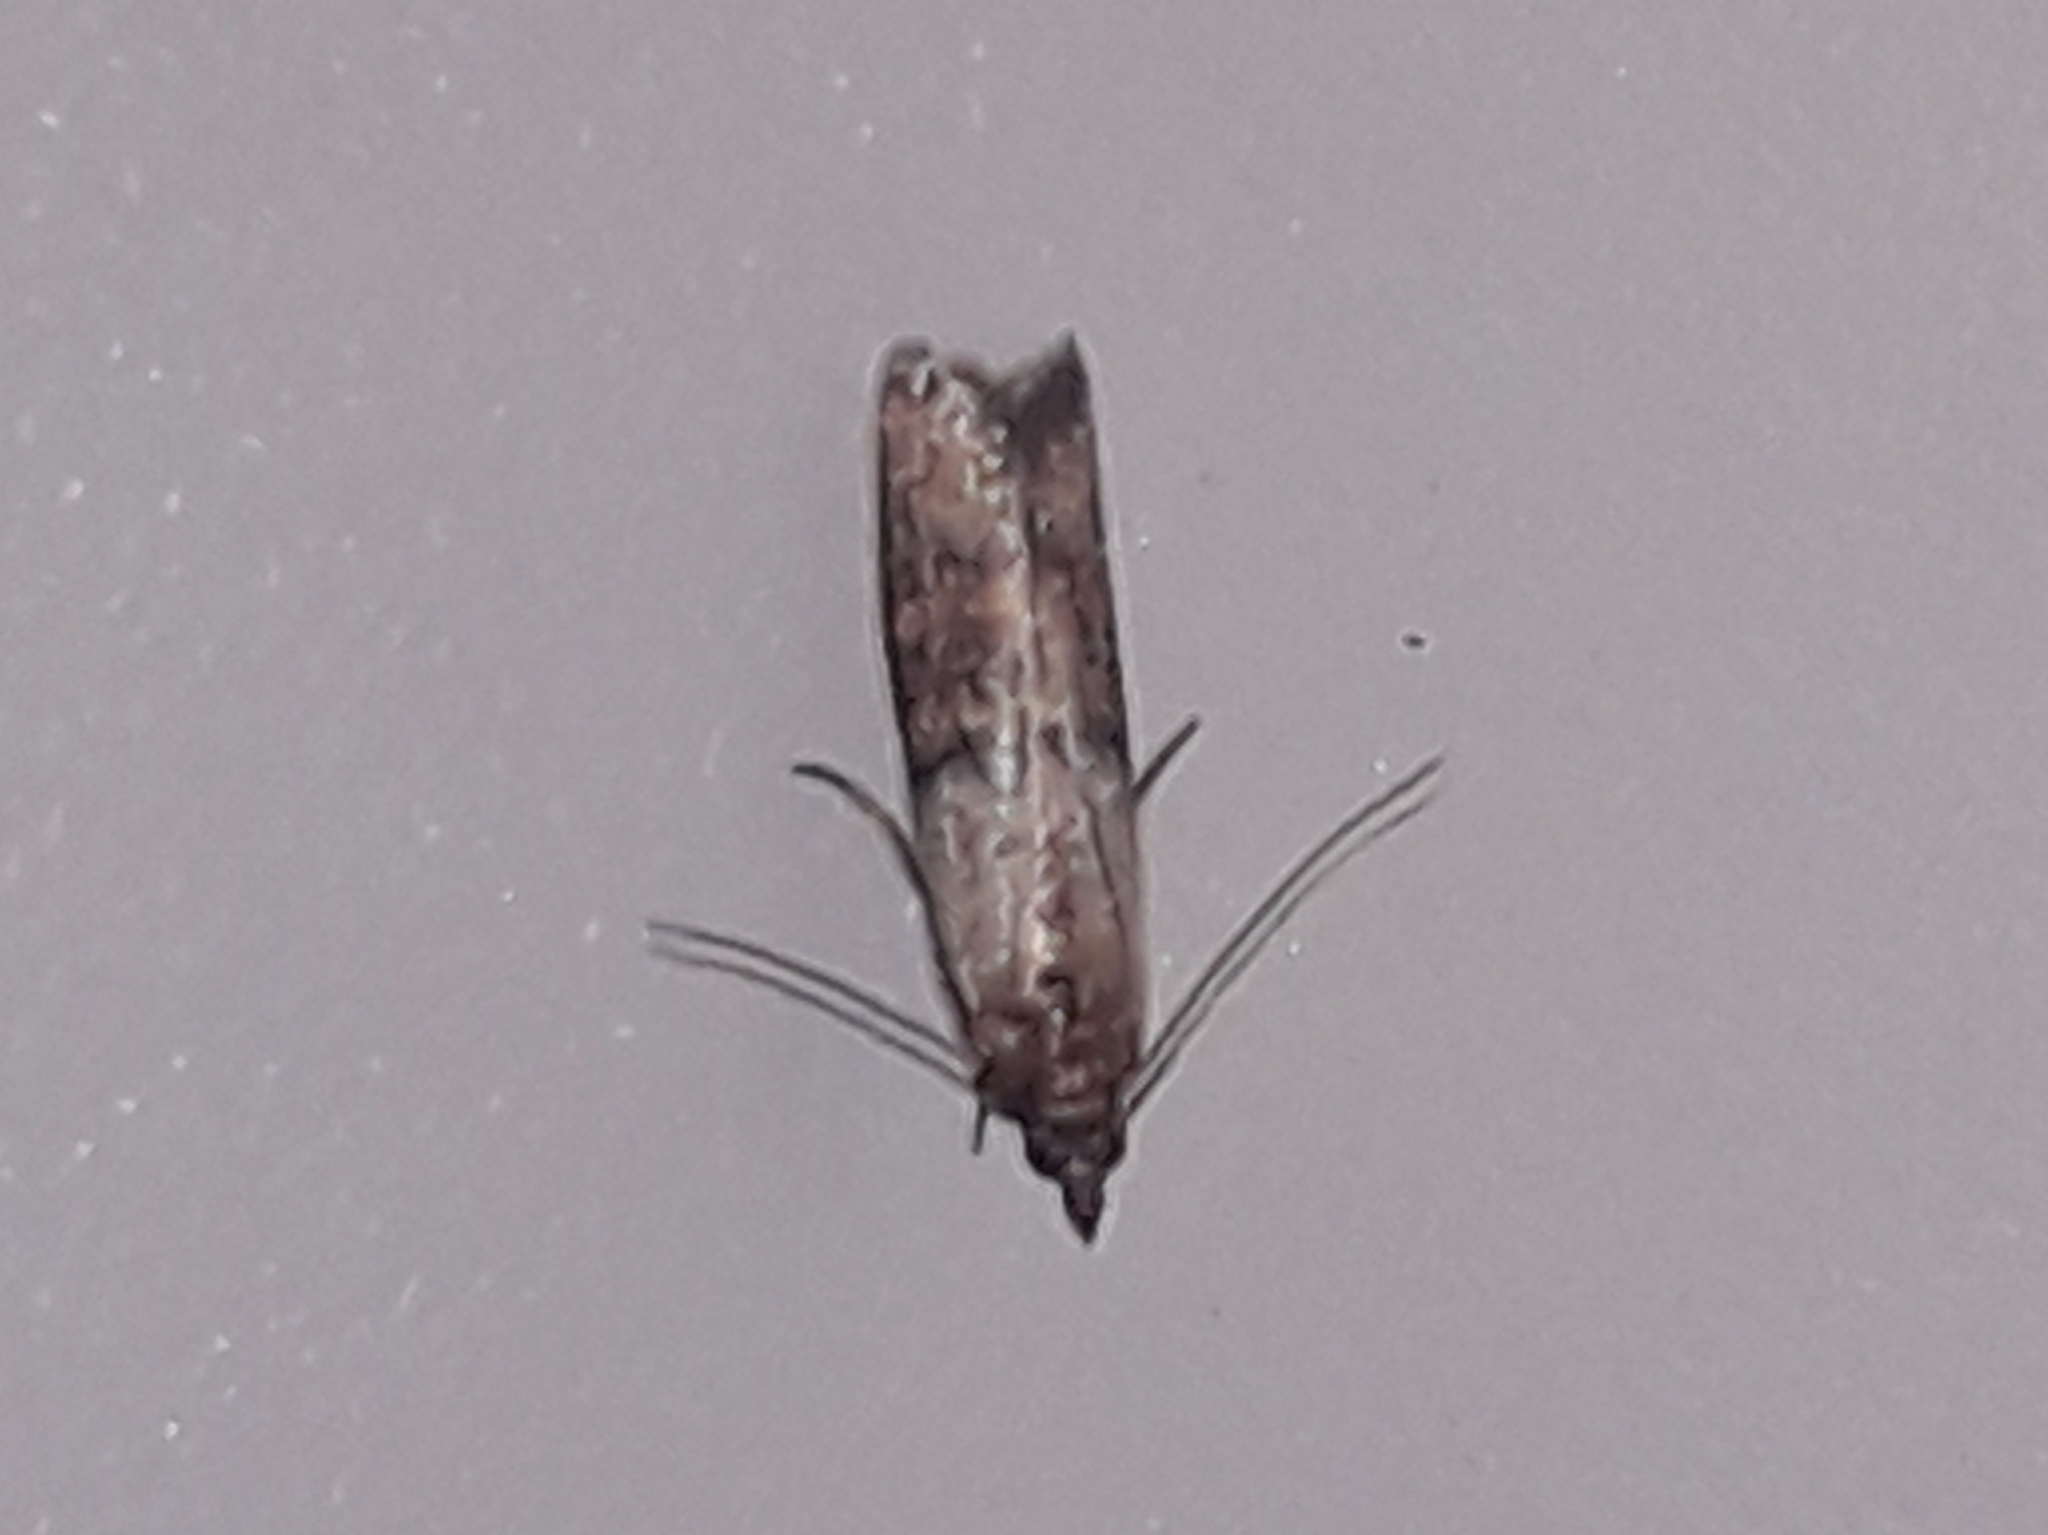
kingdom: Animalia
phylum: Arthropoda
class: Insecta
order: Lepidoptera
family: Pyralidae
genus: Plodia
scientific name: Plodia interpunctella
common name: Indian meal moth
